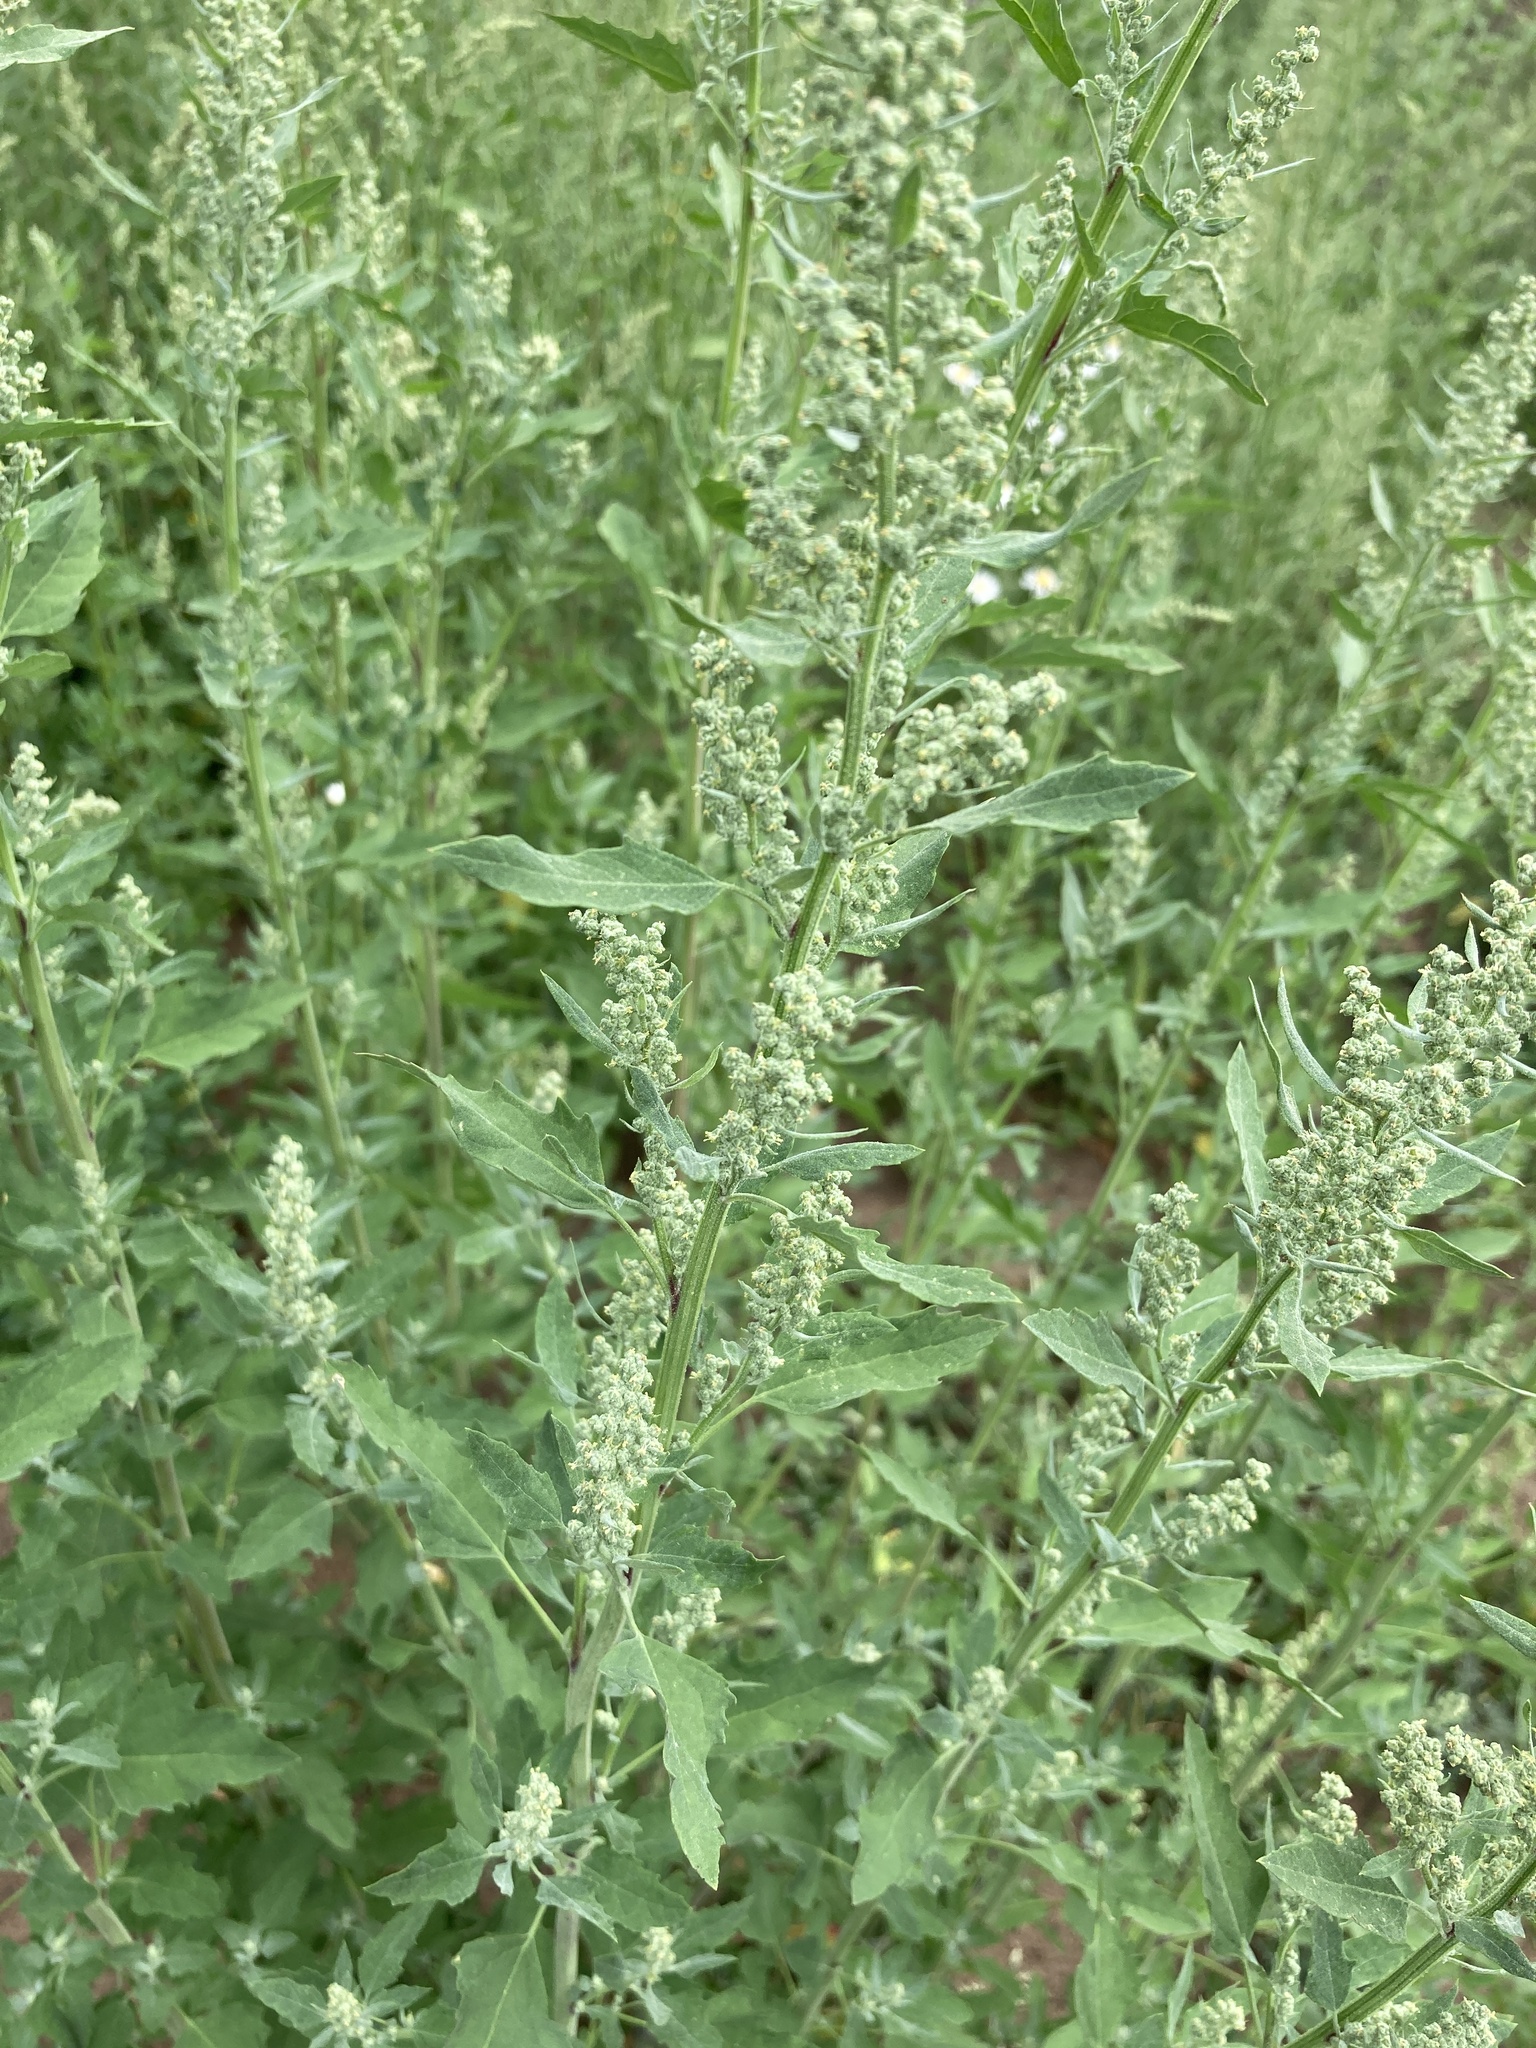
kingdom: Plantae
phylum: Tracheophyta
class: Magnoliopsida
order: Caryophyllales
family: Amaranthaceae
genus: Chenopodium
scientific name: Chenopodium album
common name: Fat-hen
